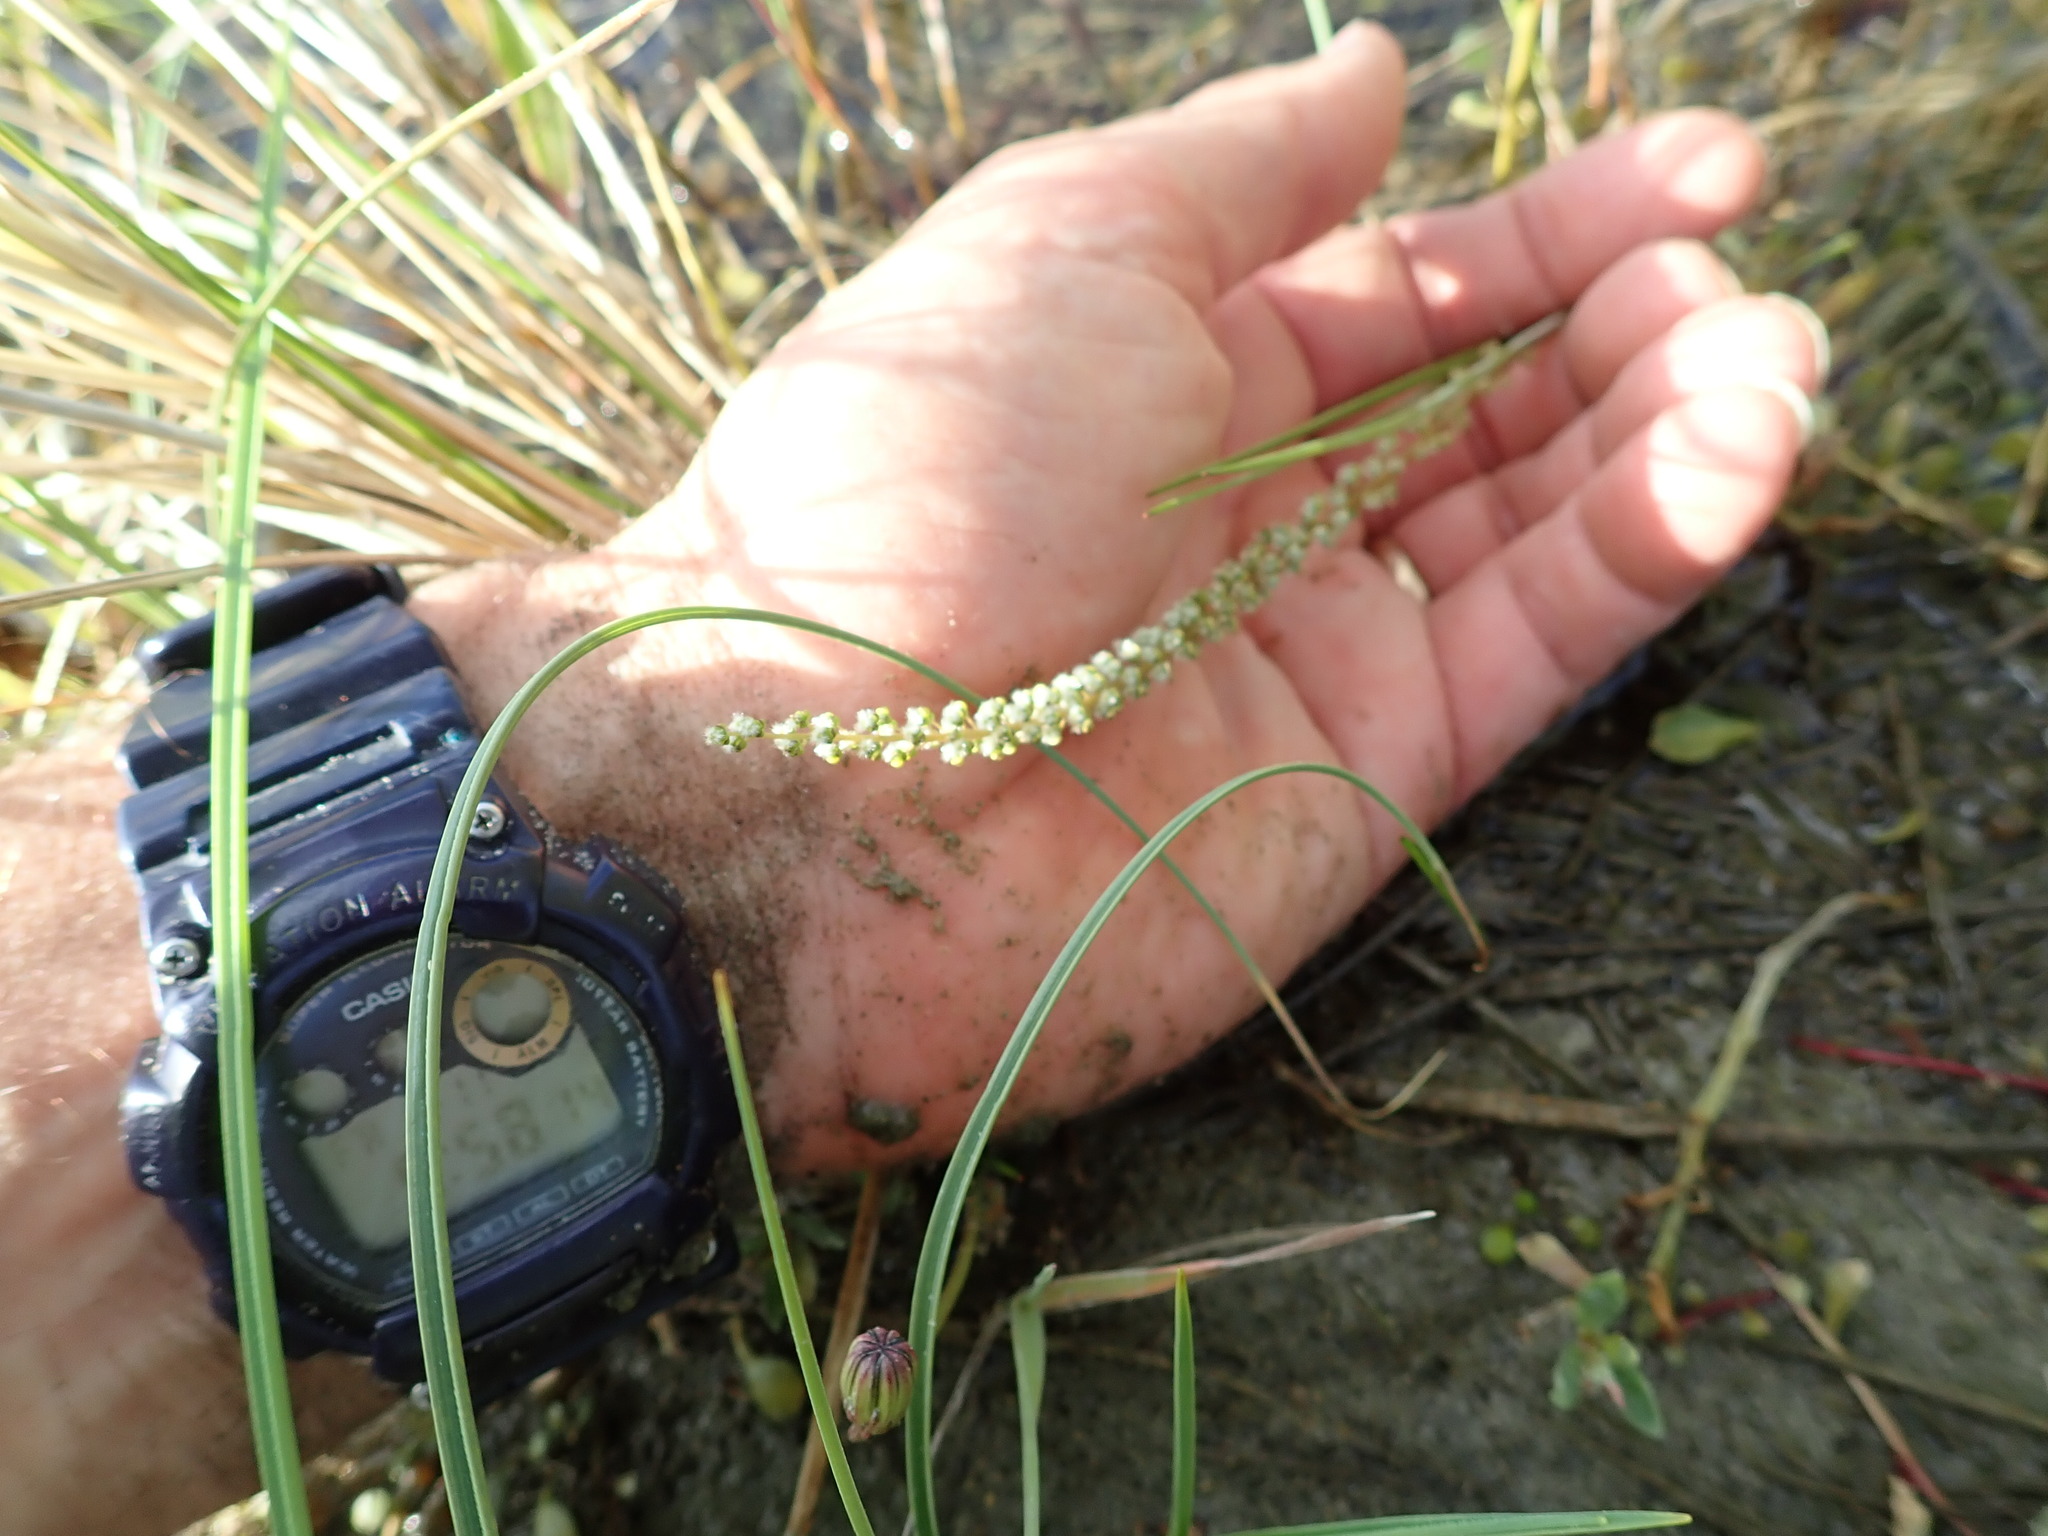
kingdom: Plantae
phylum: Tracheophyta
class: Liliopsida
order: Alismatales
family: Juncaginaceae
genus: Triglochin
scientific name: Triglochin striata
